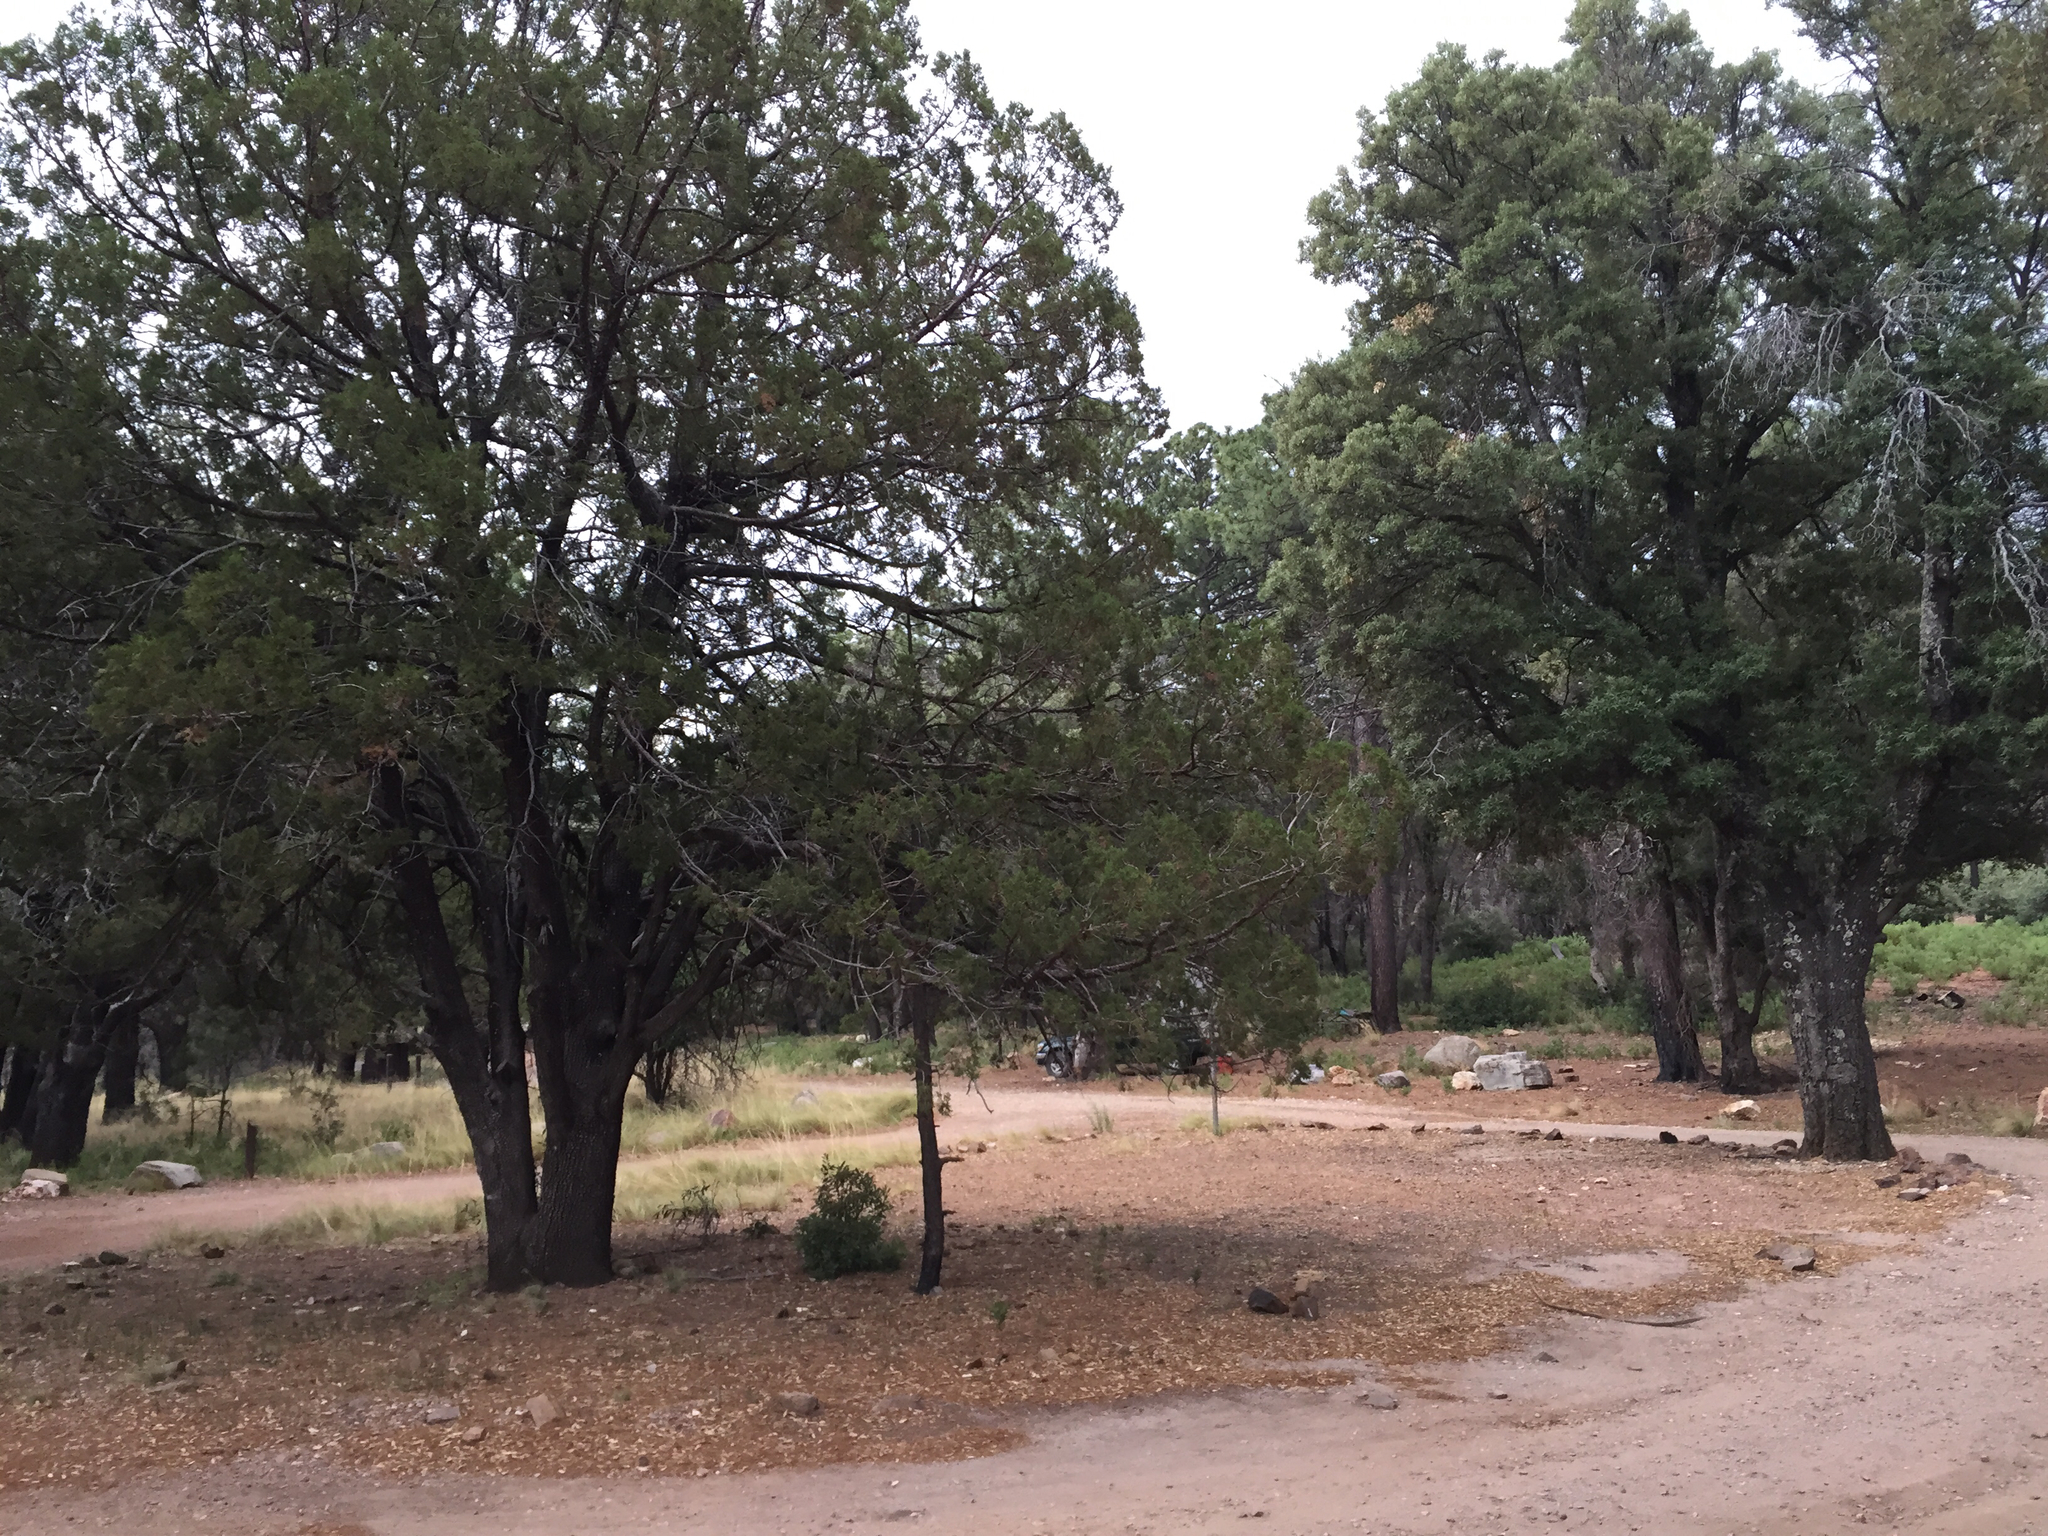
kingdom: Plantae
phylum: Tracheophyta
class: Pinopsida
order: Pinales
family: Cupressaceae
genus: Juniperus
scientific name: Juniperus deppeana
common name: Alligator juniper
